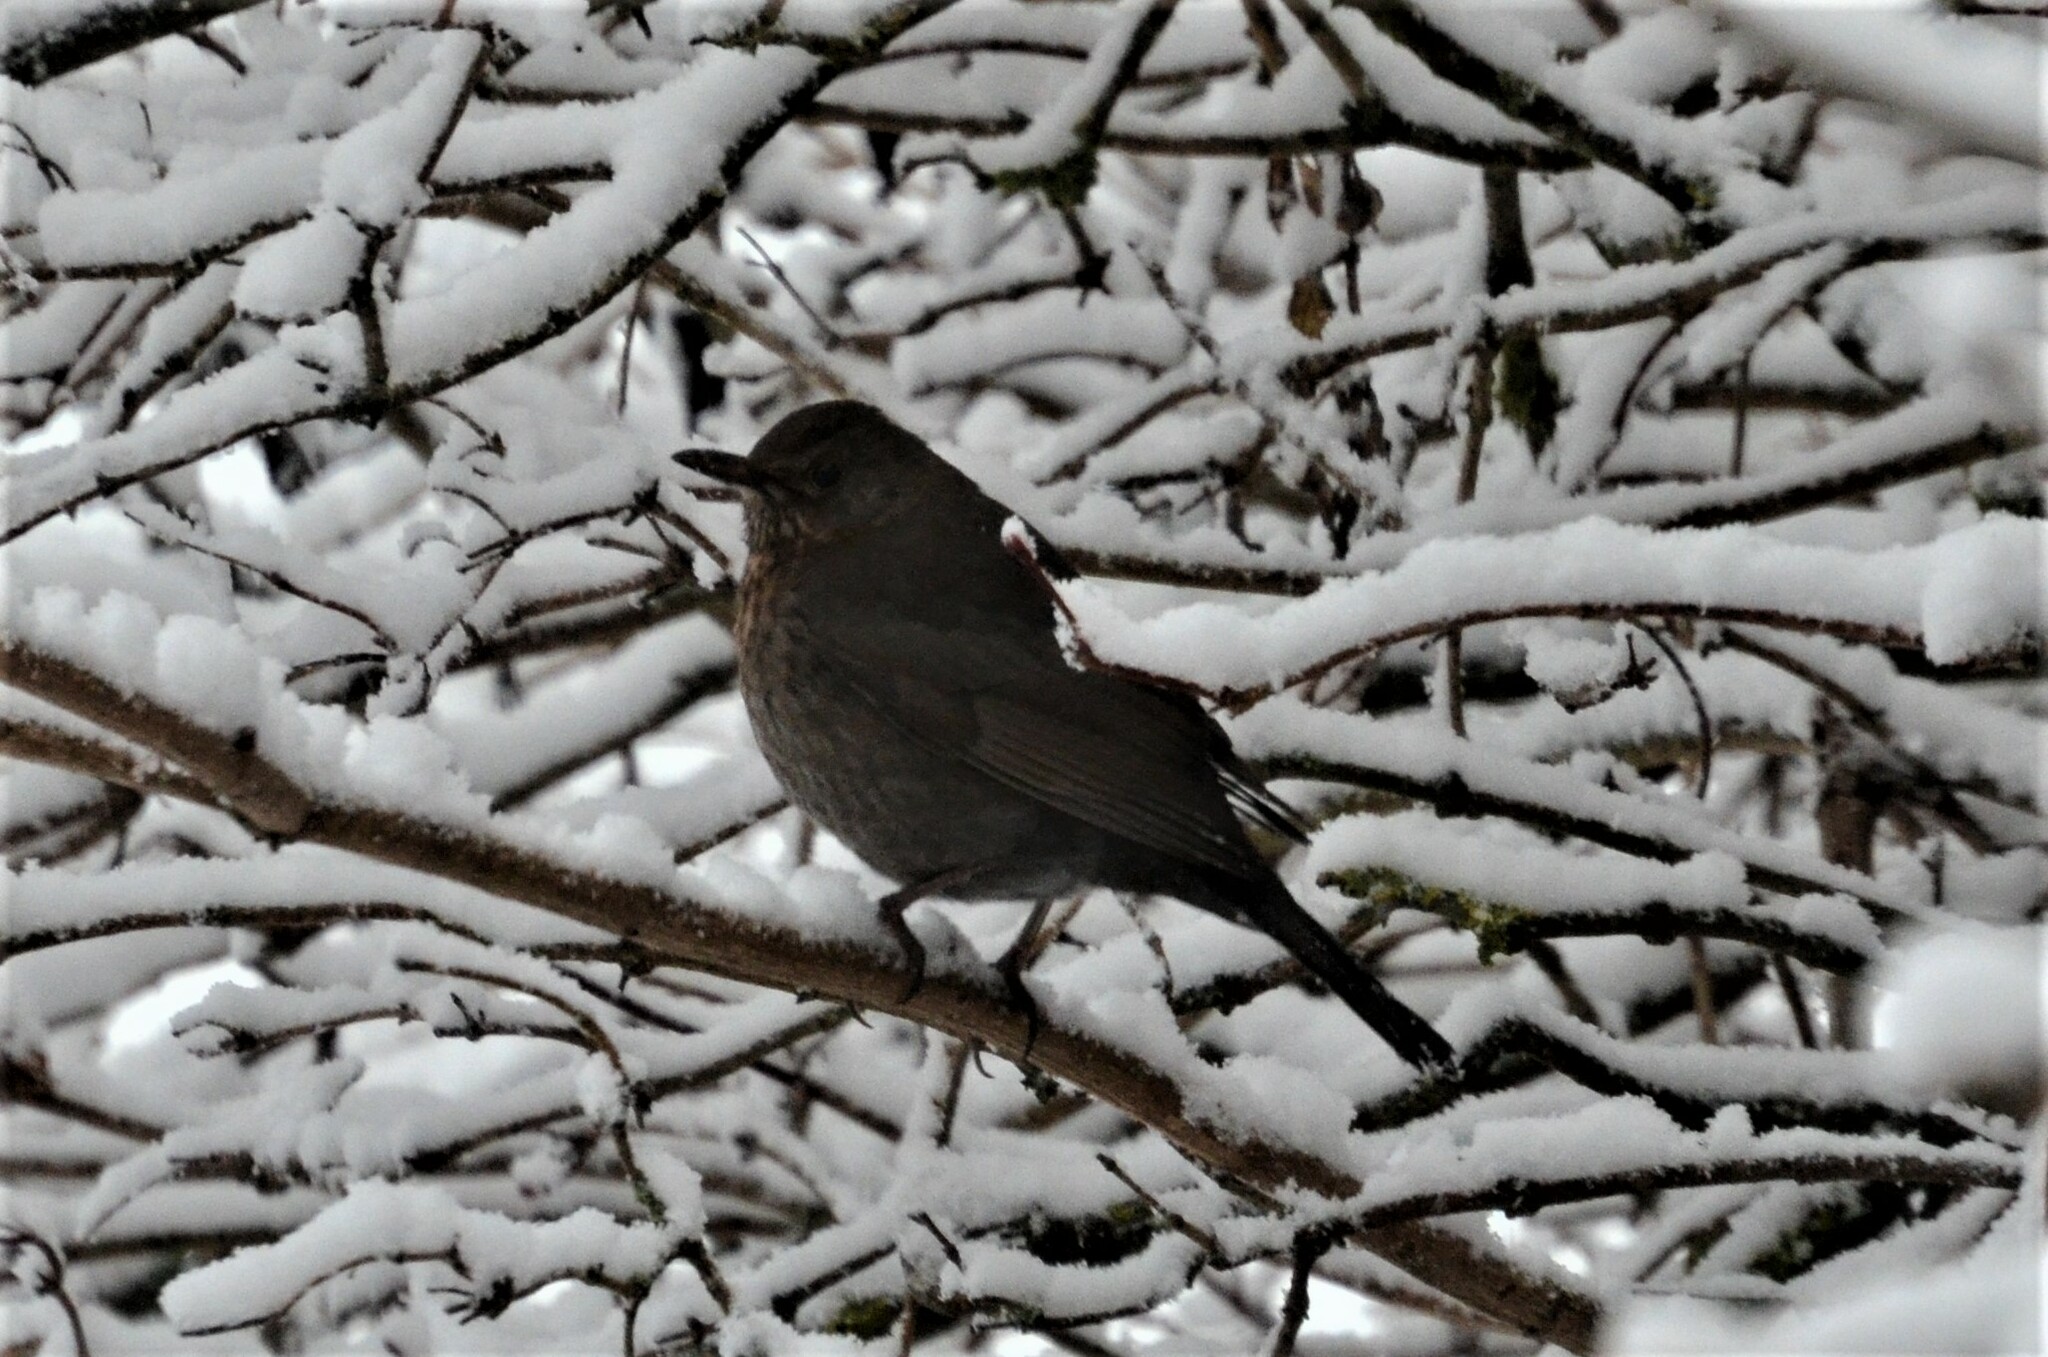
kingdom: Animalia
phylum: Chordata
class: Aves
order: Passeriformes
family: Turdidae
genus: Turdus
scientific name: Turdus merula
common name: Common blackbird
